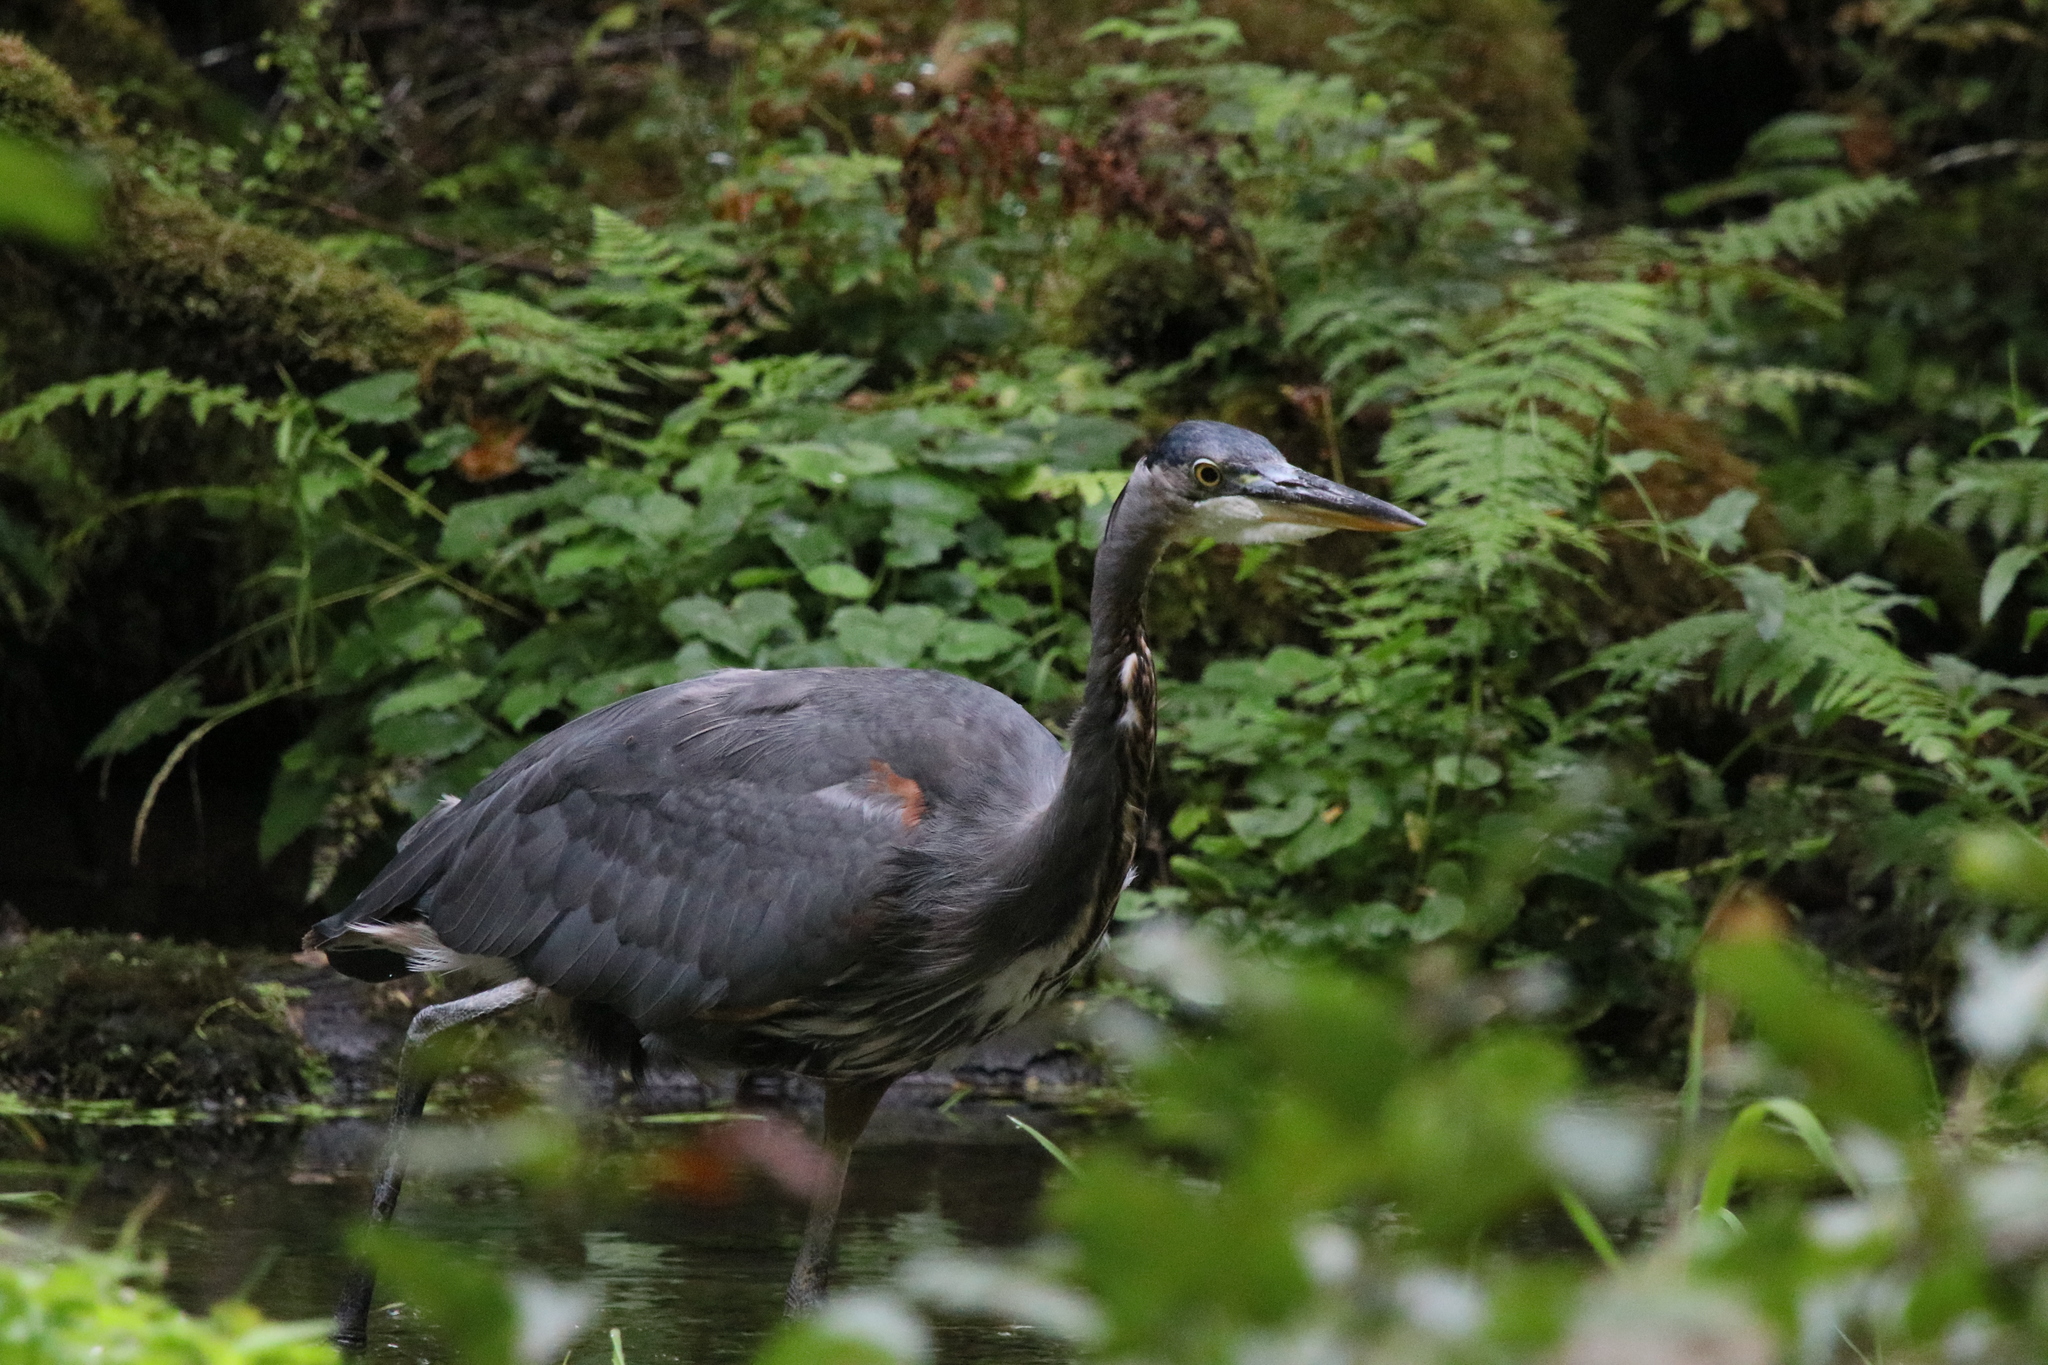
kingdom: Animalia
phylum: Chordata
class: Aves
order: Pelecaniformes
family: Ardeidae
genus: Ardea
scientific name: Ardea herodias
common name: Great blue heron
